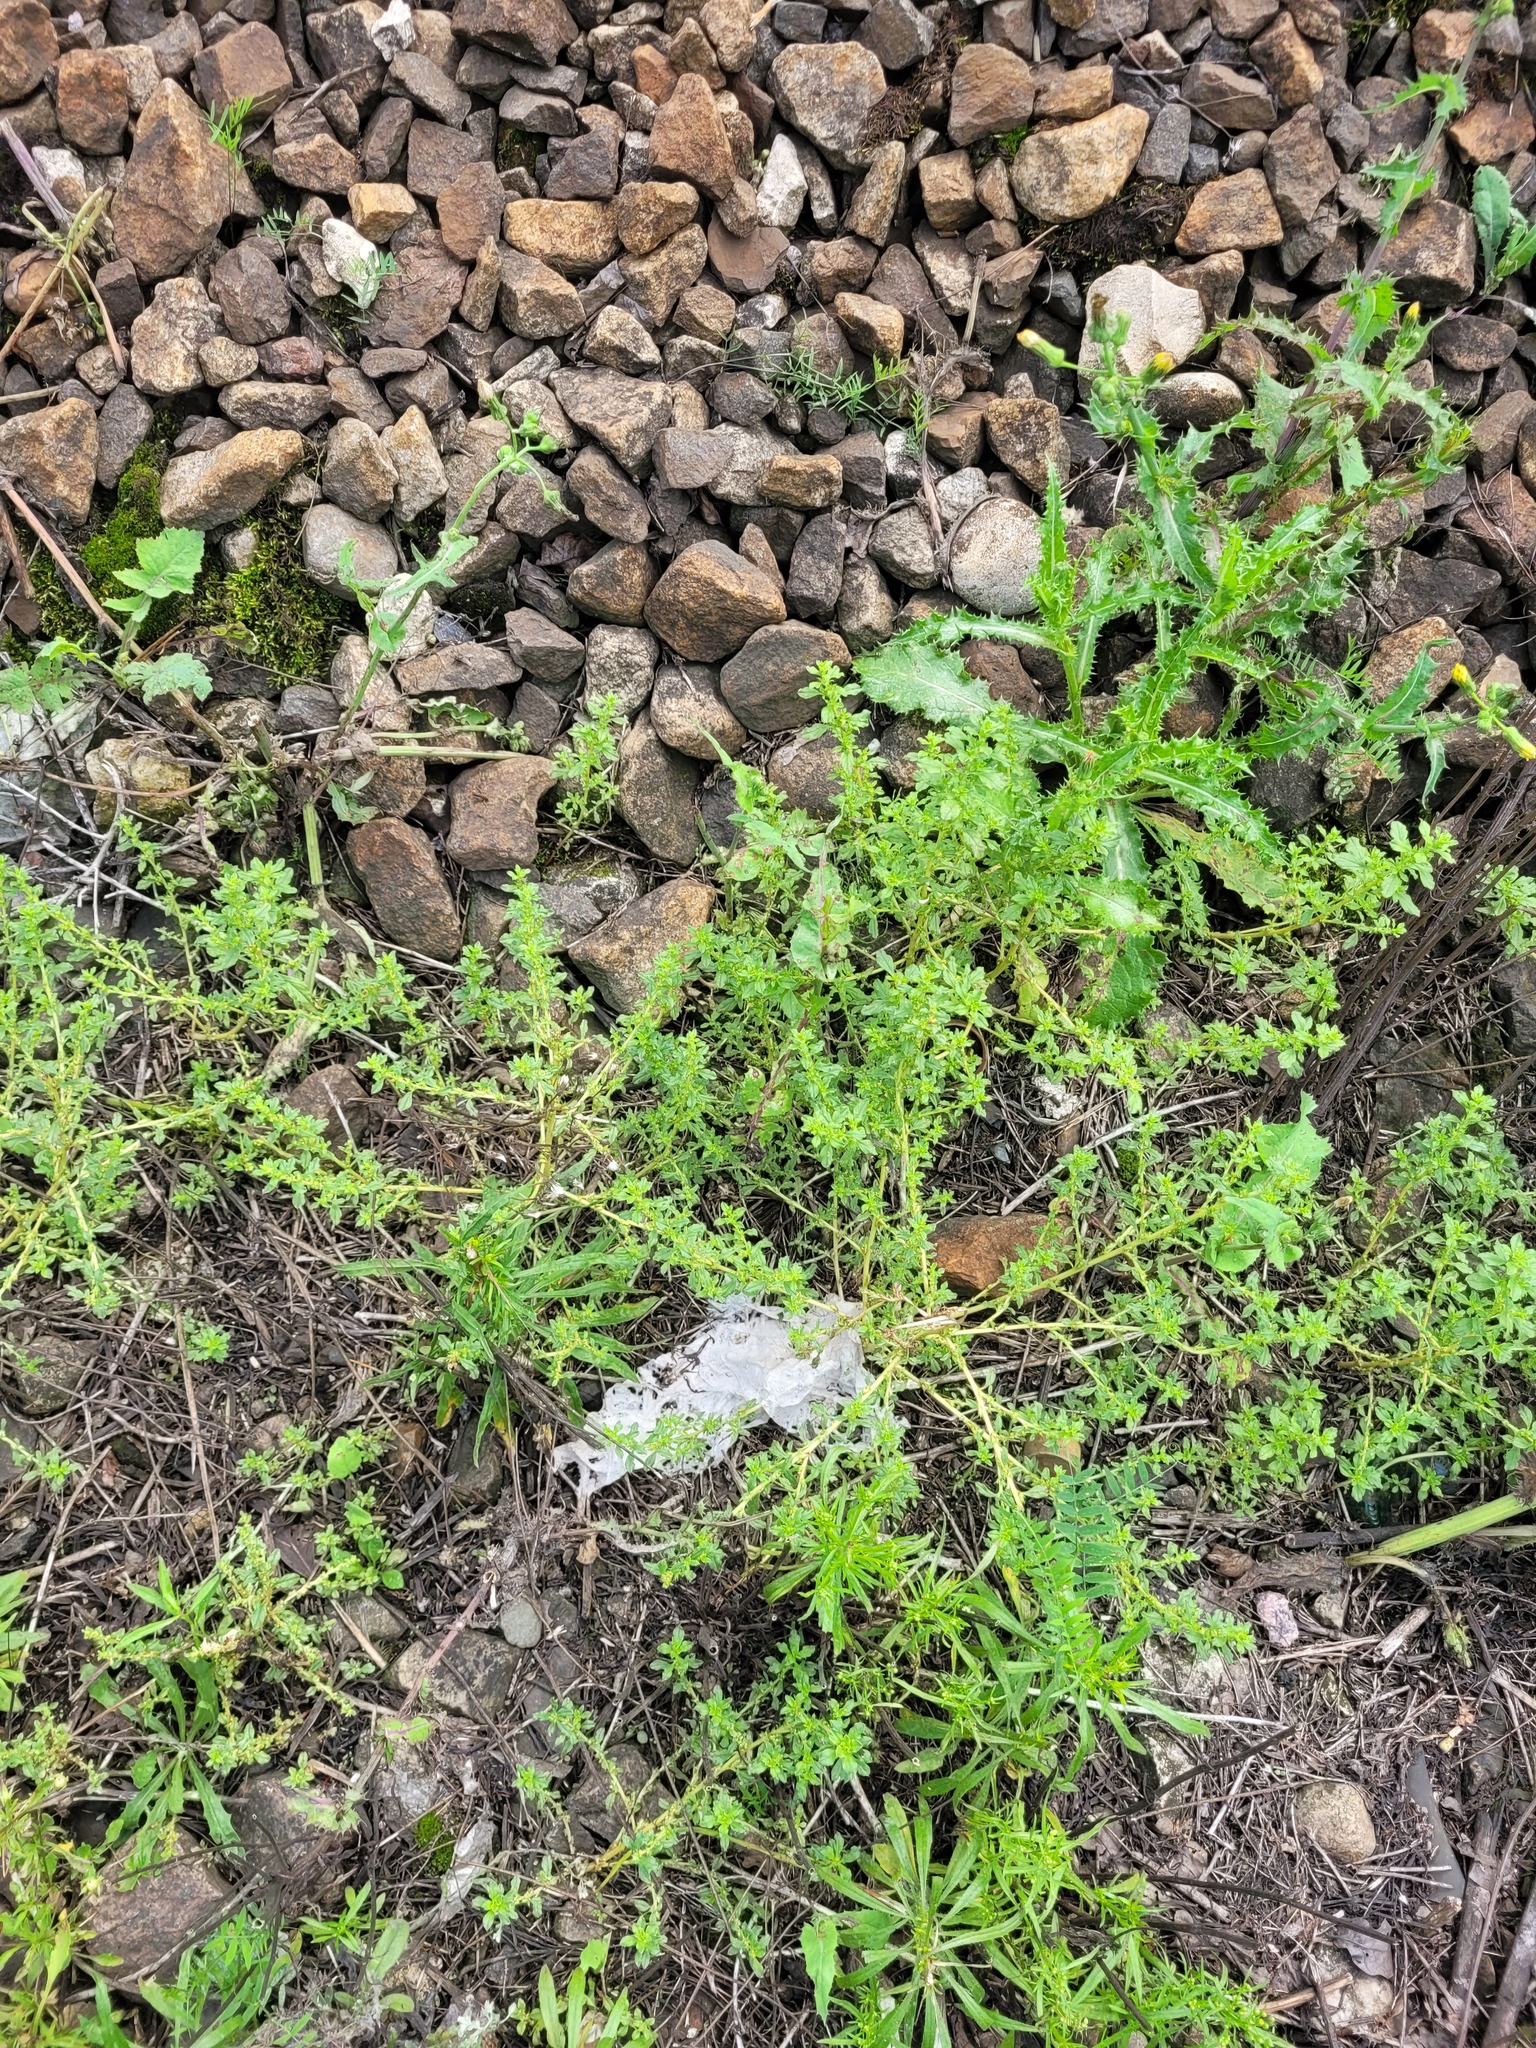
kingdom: Plantae
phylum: Tracheophyta
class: Magnoliopsida
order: Caryophyllales
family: Amaranthaceae
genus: Amaranthus
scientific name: Amaranthus albus
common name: White pigweed
